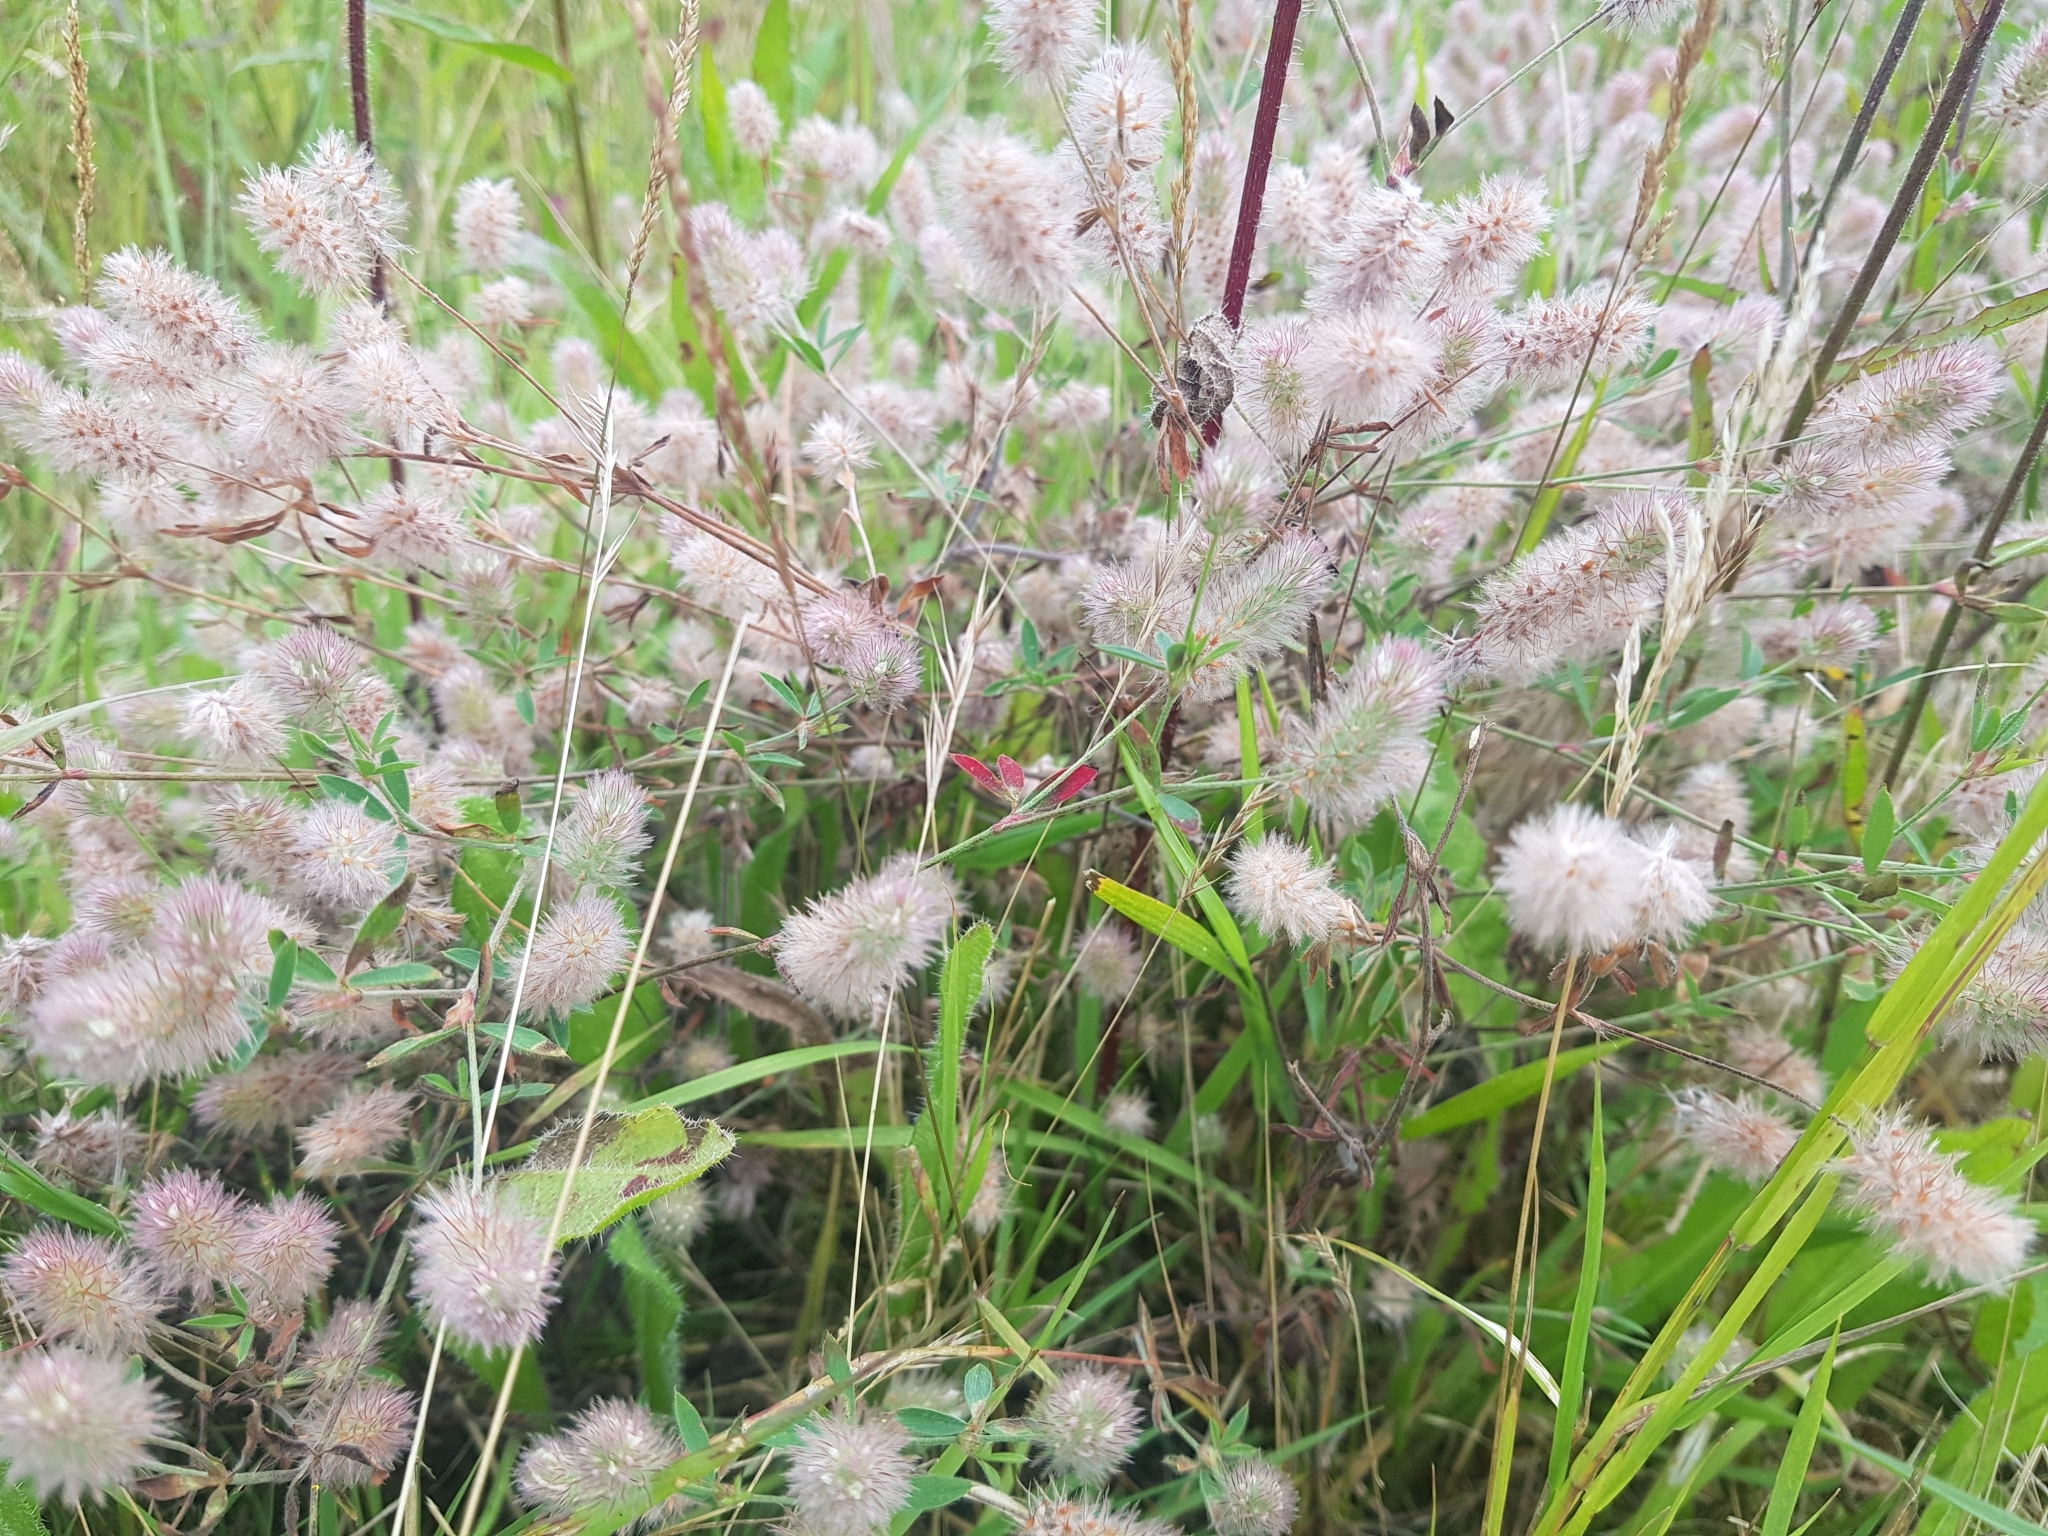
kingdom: Plantae
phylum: Tracheophyta
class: Magnoliopsida
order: Fabales
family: Fabaceae
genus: Trifolium
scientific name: Trifolium arvense
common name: Hare's-foot clover
